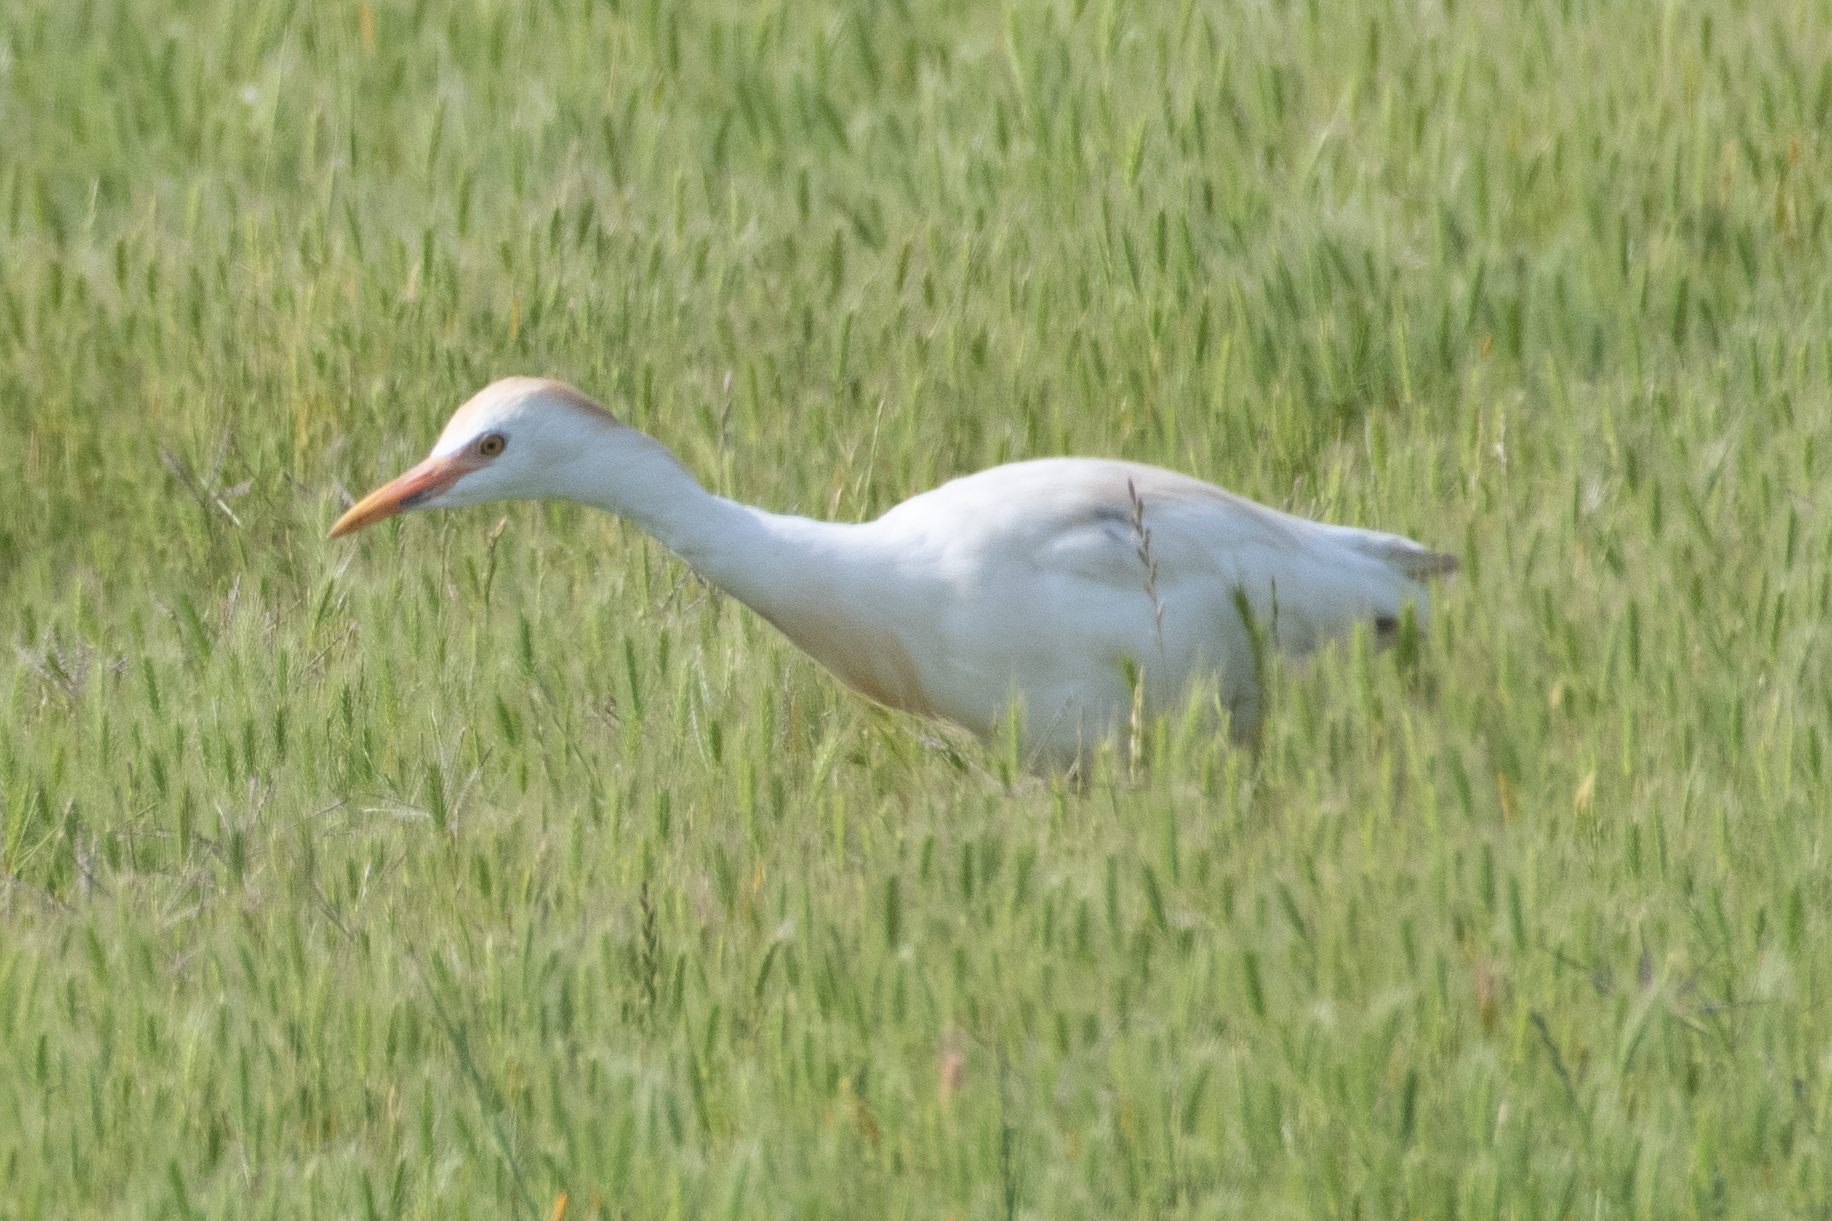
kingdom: Animalia
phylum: Chordata
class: Aves
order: Pelecaniformes
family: Ardeidae
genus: Bubulcus
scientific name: Bubulcus ibis
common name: Cattle egret
